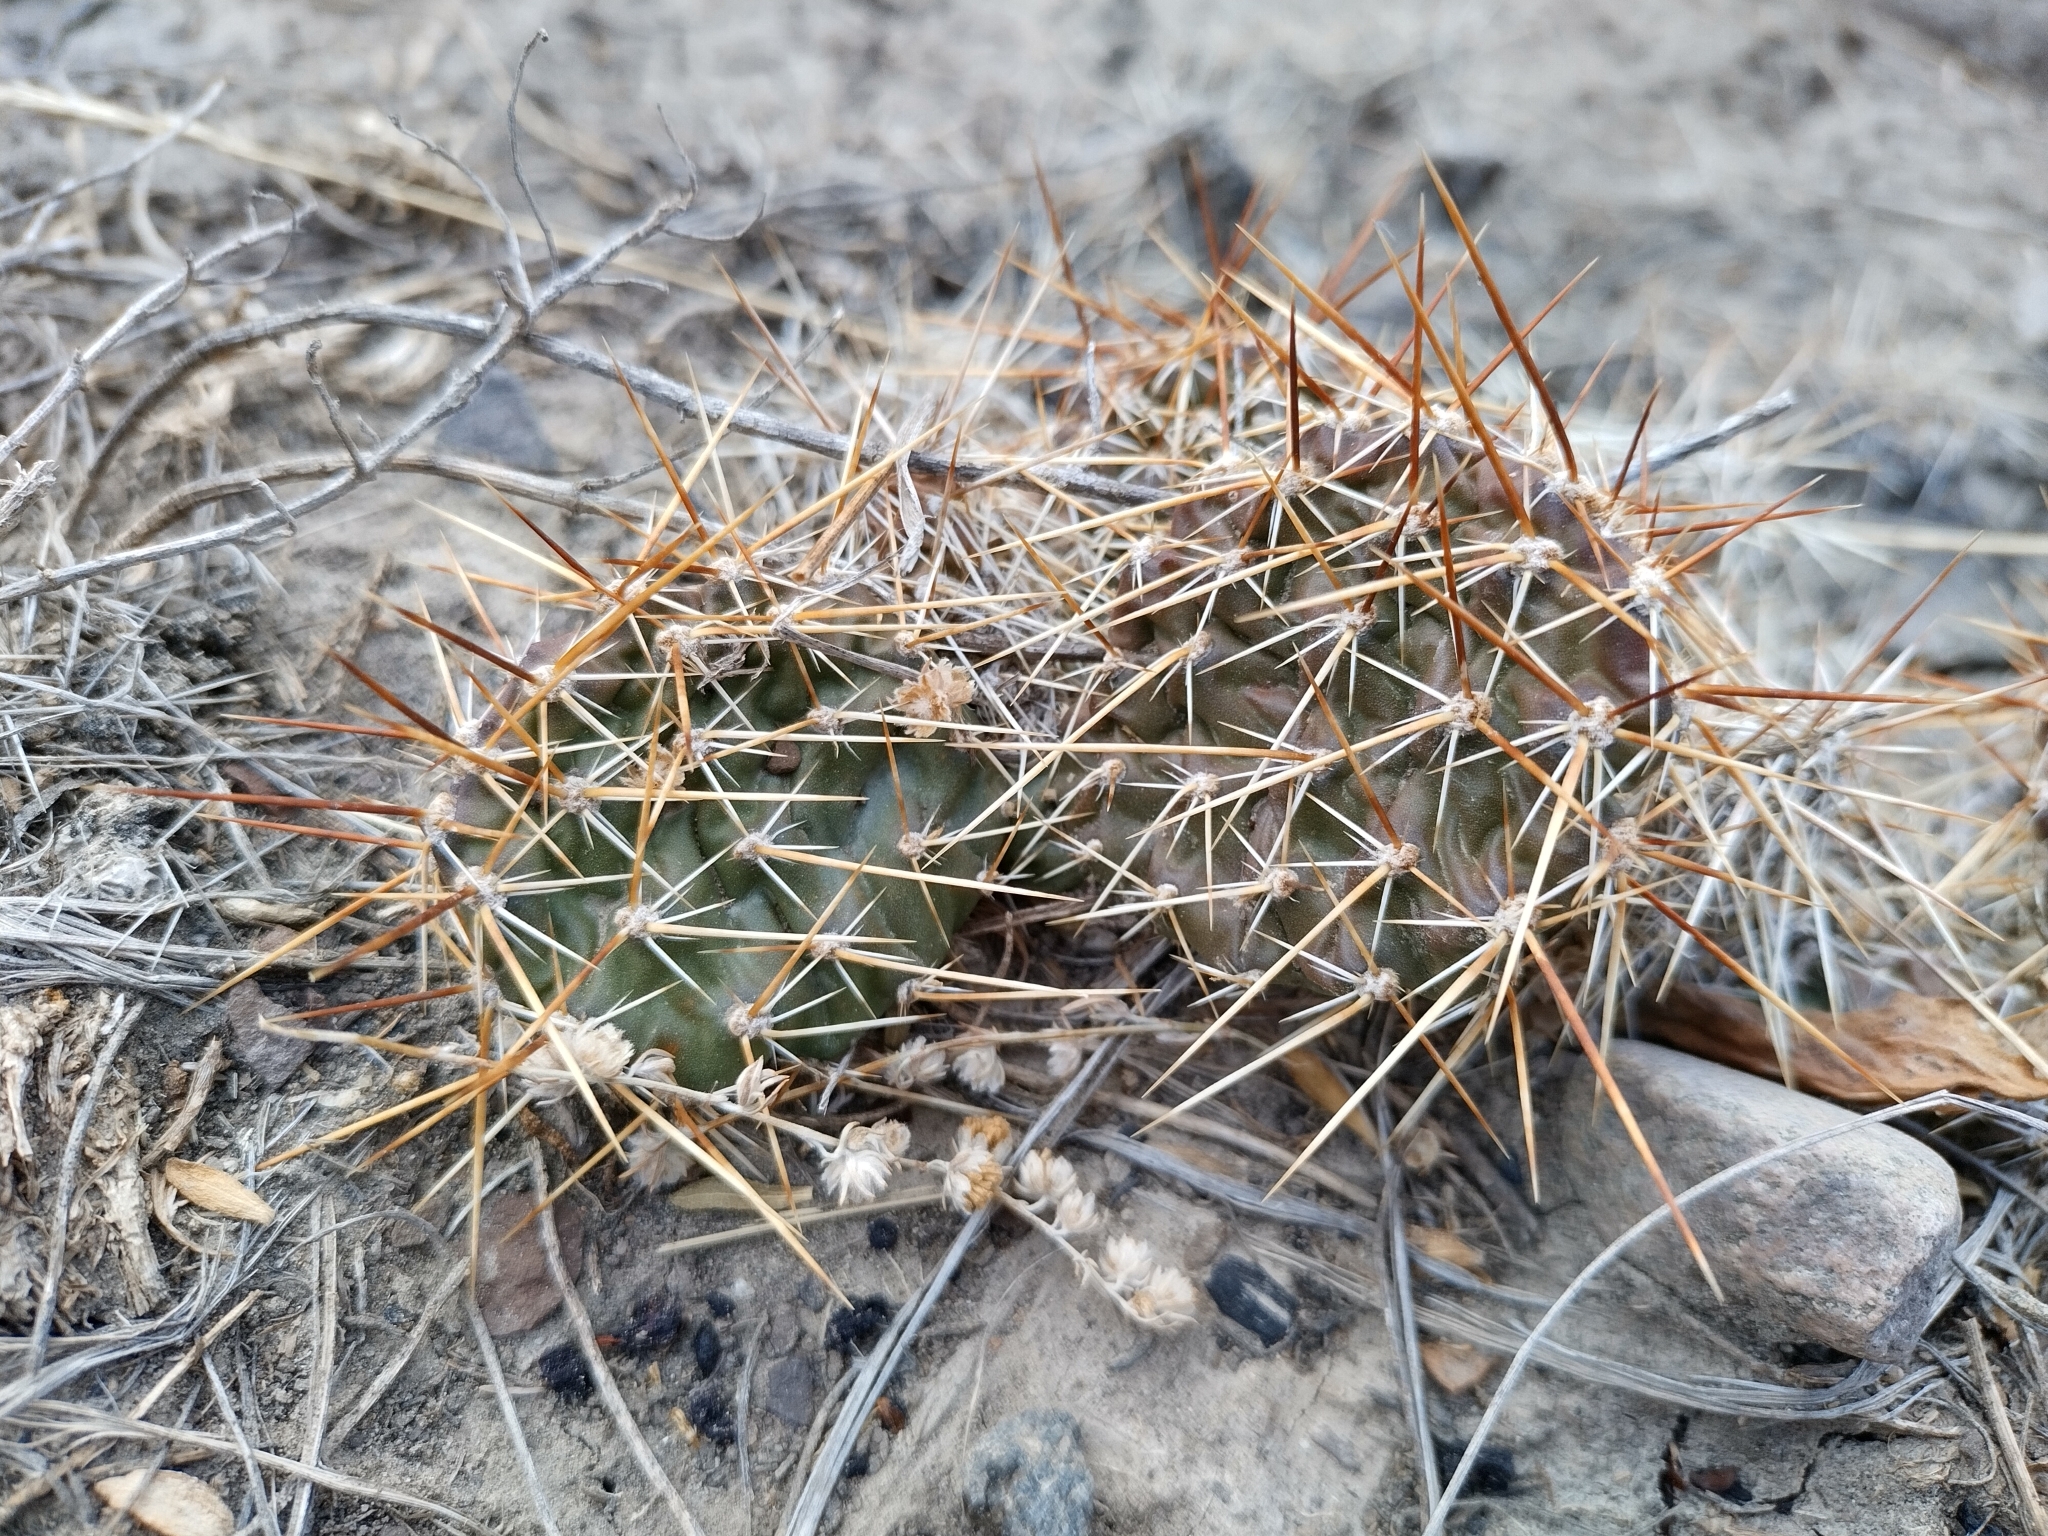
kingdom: Plantae
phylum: Tracheophyta
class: Magnoliopsida
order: Caryophyllales
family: Cactaceae
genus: Opuntia
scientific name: Opuntia polyacantha
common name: Plains prickly-pear
